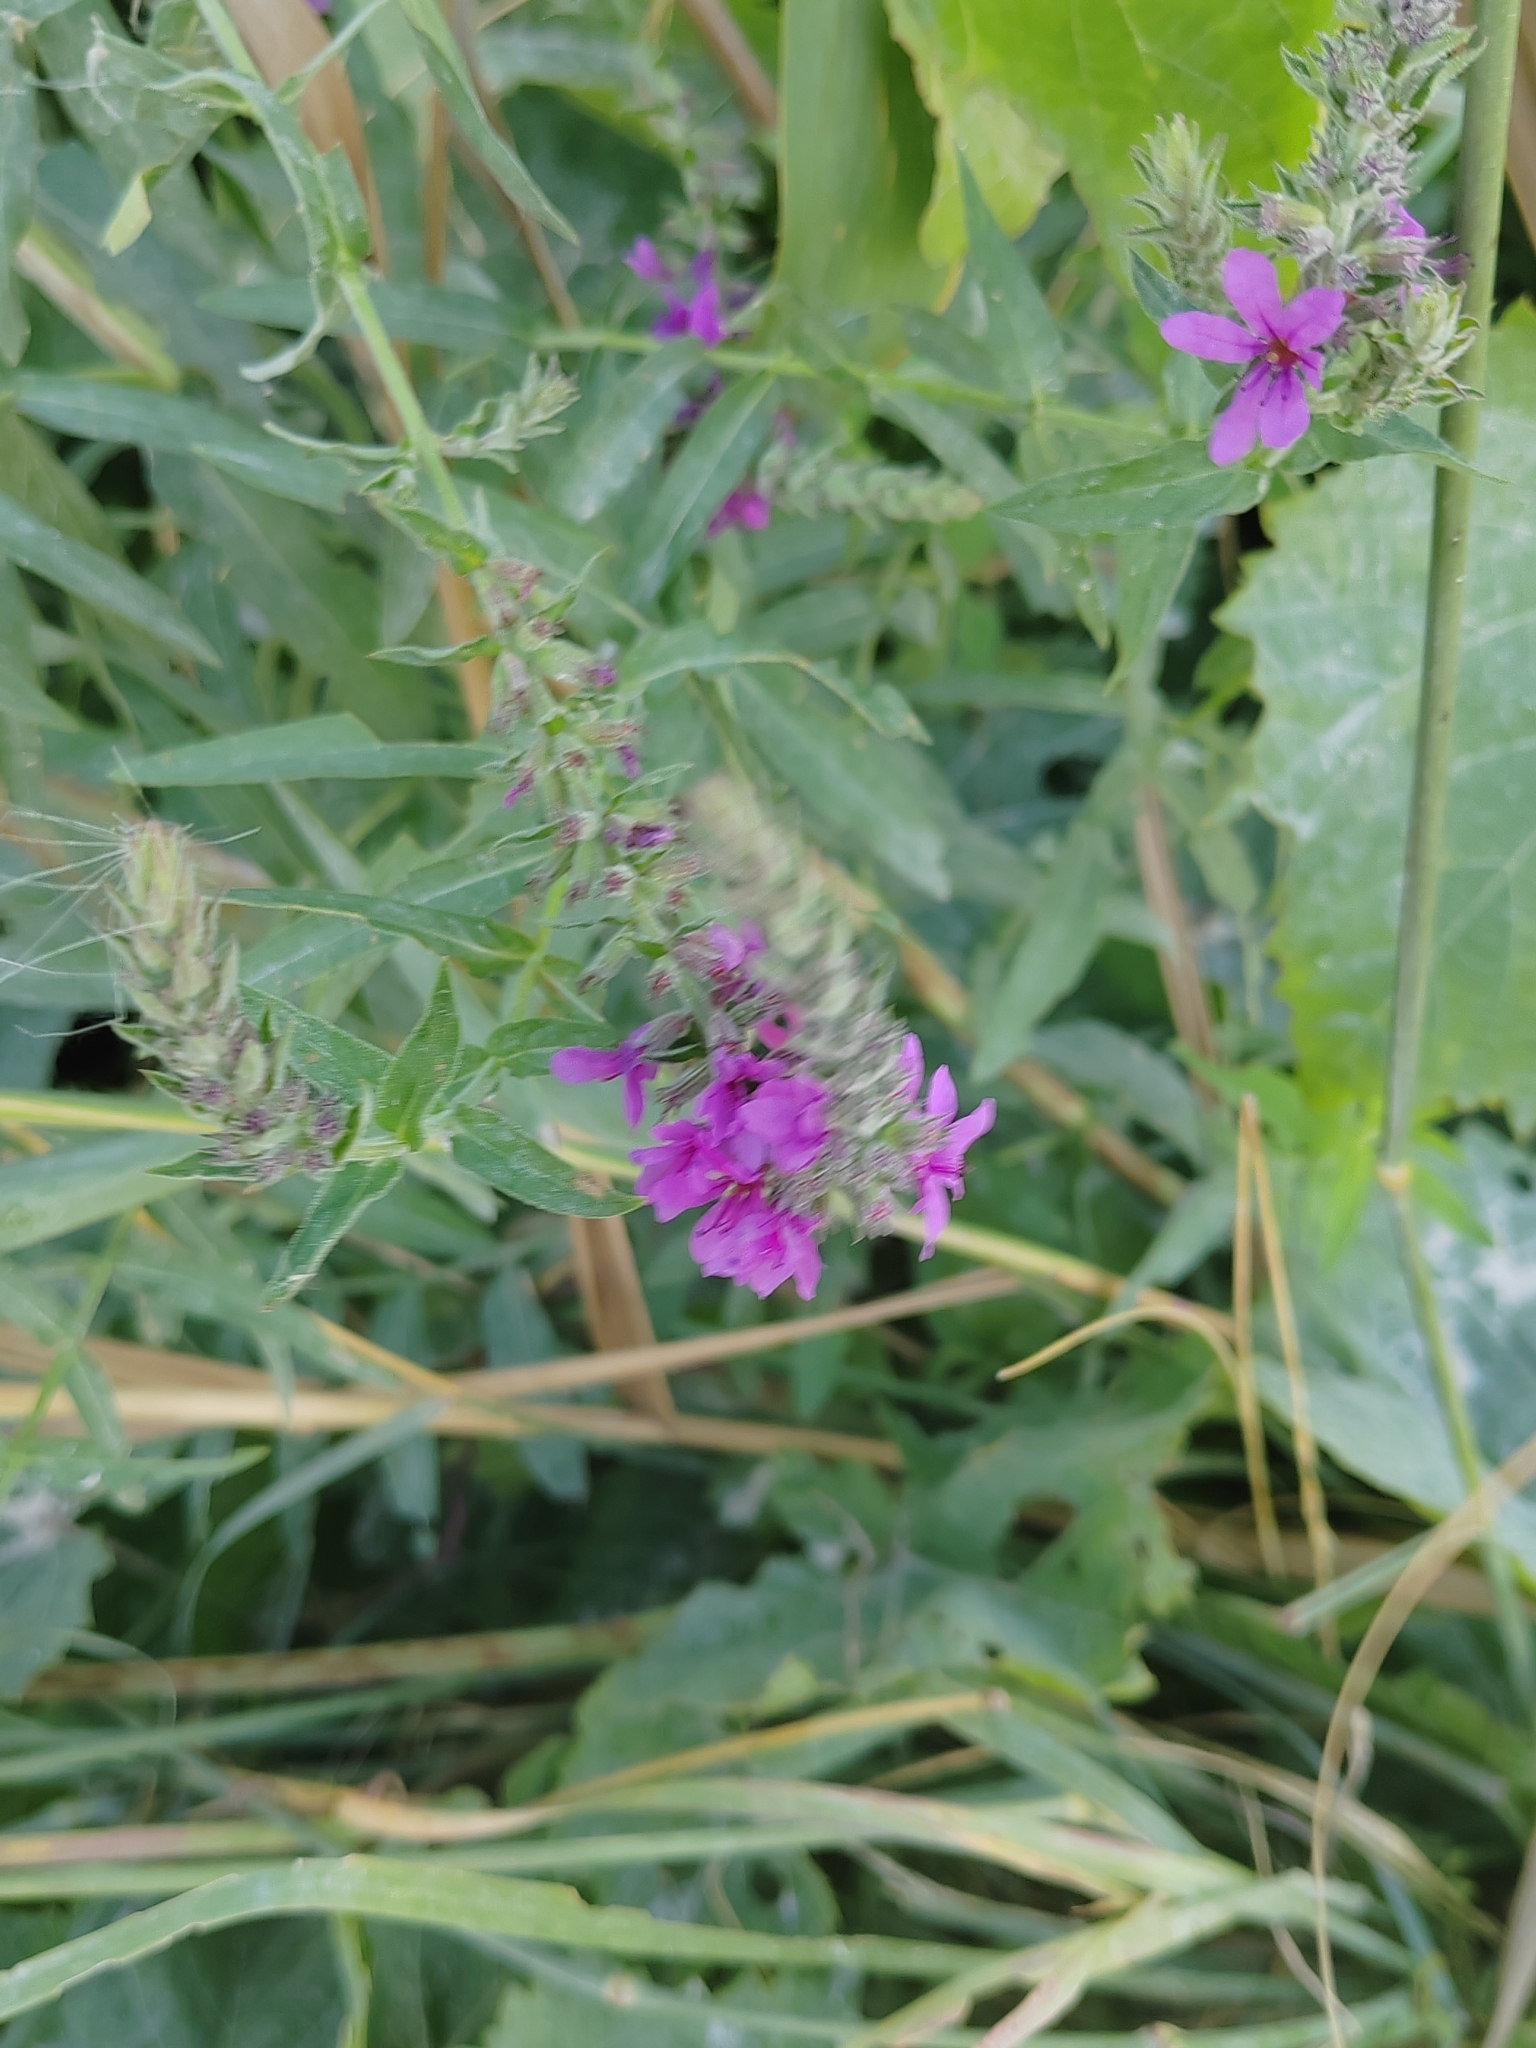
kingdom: Plantae
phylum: Tracheophyta
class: Magnoliopsida
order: Myrtales
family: Lythraceae
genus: Lythrum
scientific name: Lythrum salicaria
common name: Purple loosestrife
